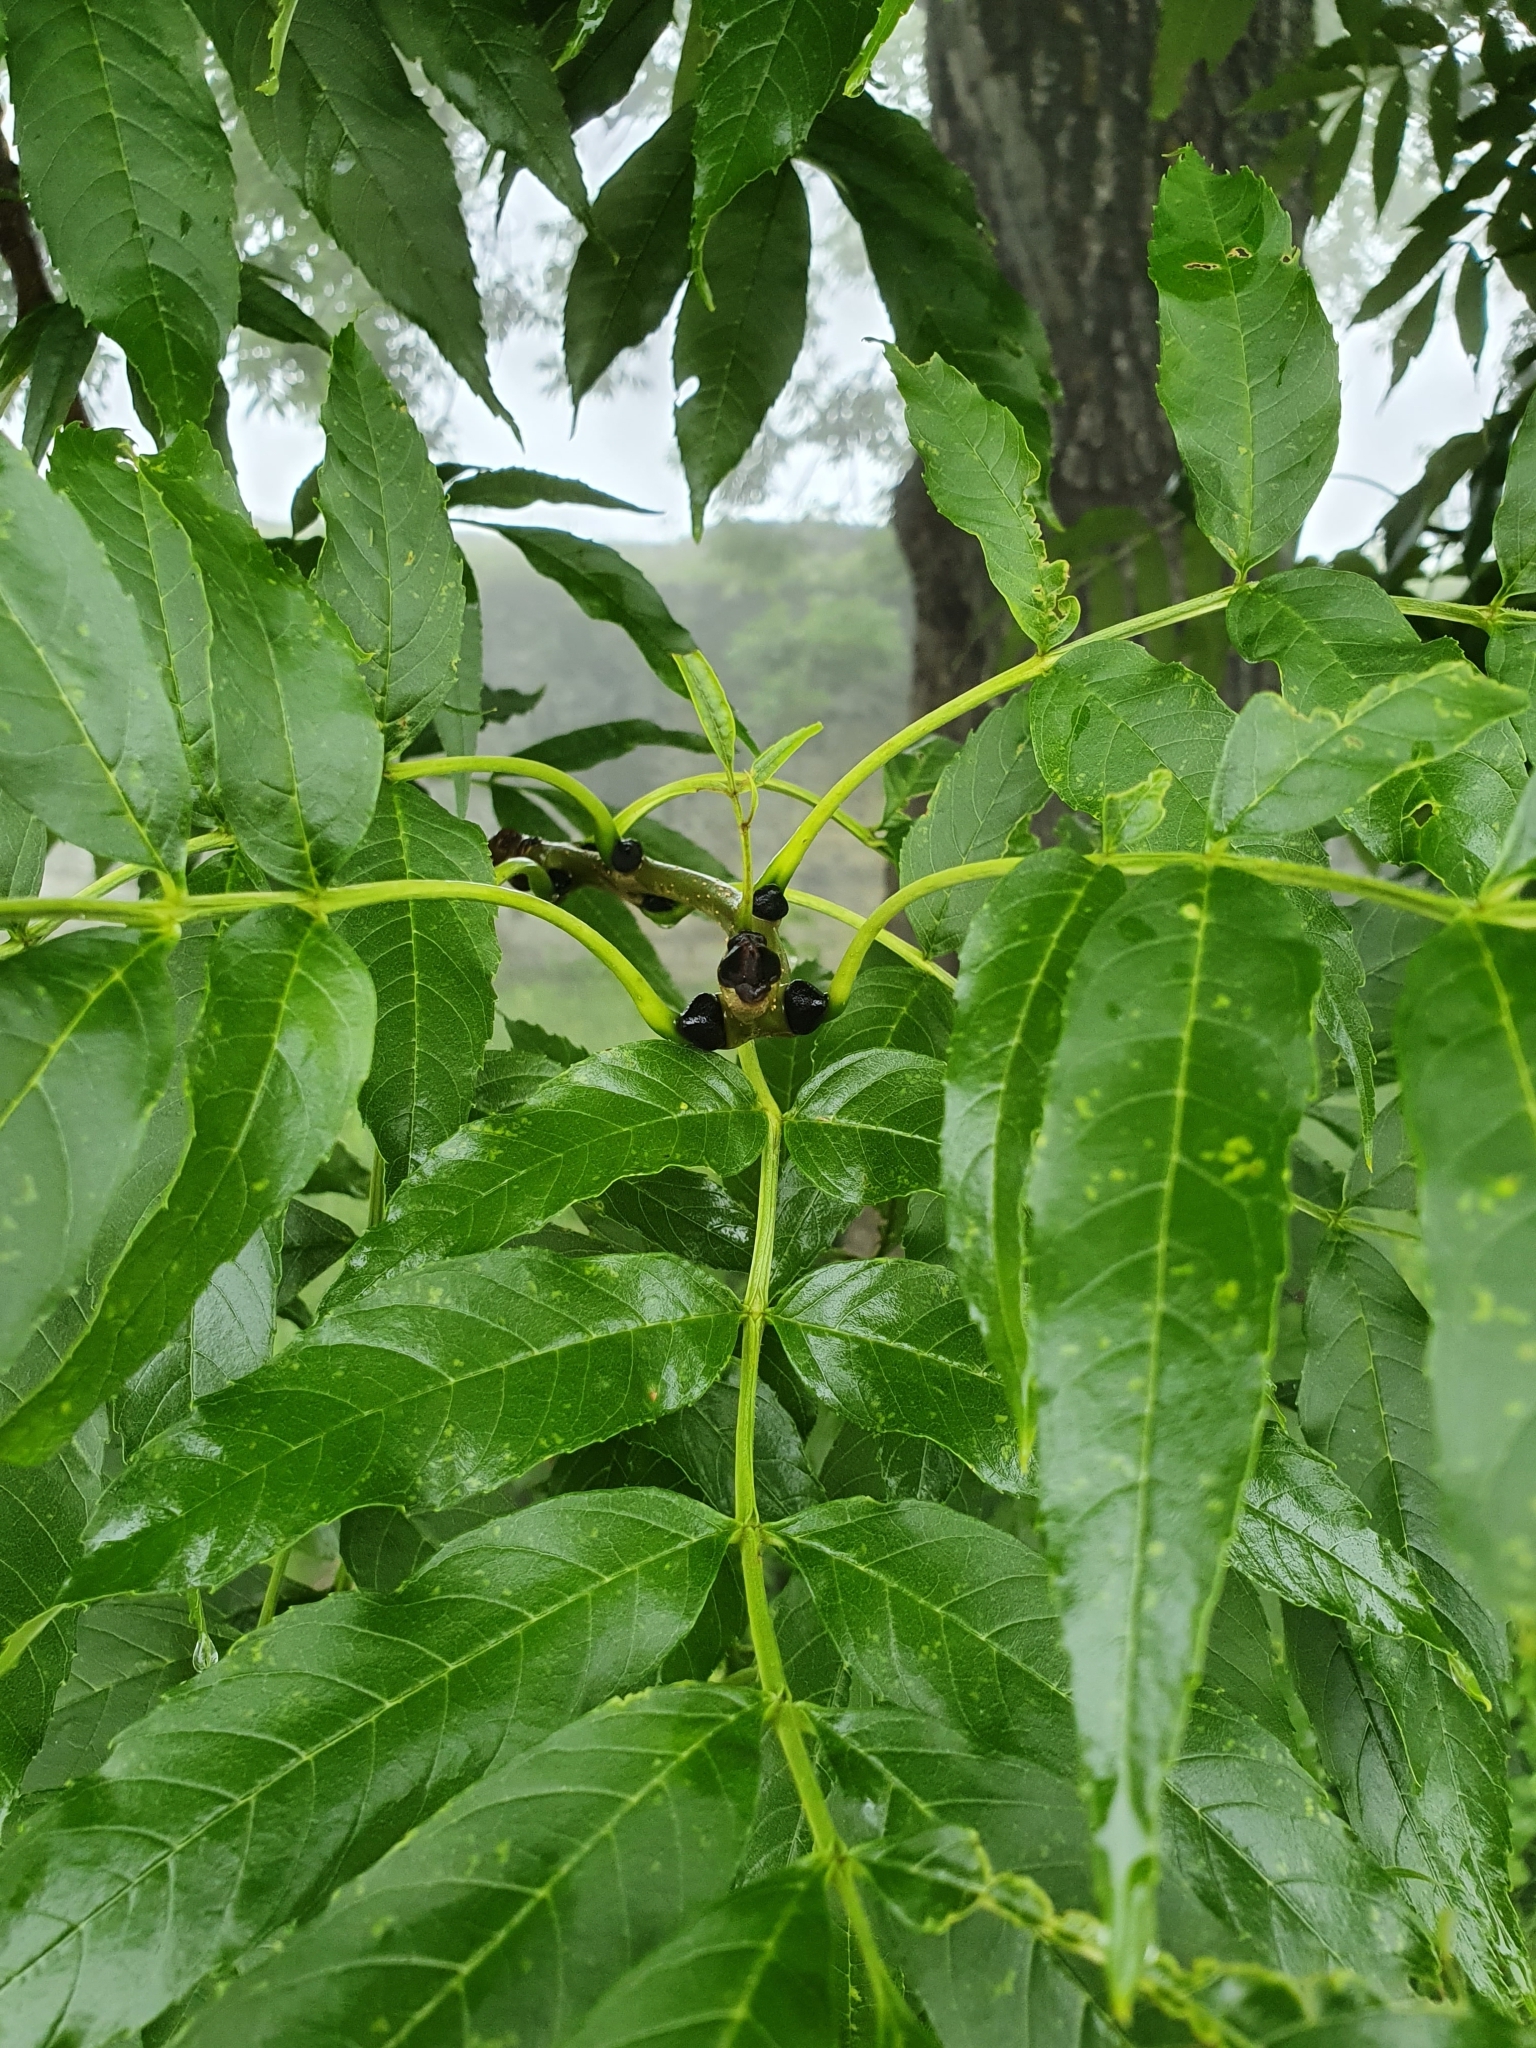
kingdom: Plantae
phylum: Tracheophyta
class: Magnoliopsida
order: Lamiales
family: Oleaceae
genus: Fraxinus
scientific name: Fraxinus excelsior
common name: European ash
